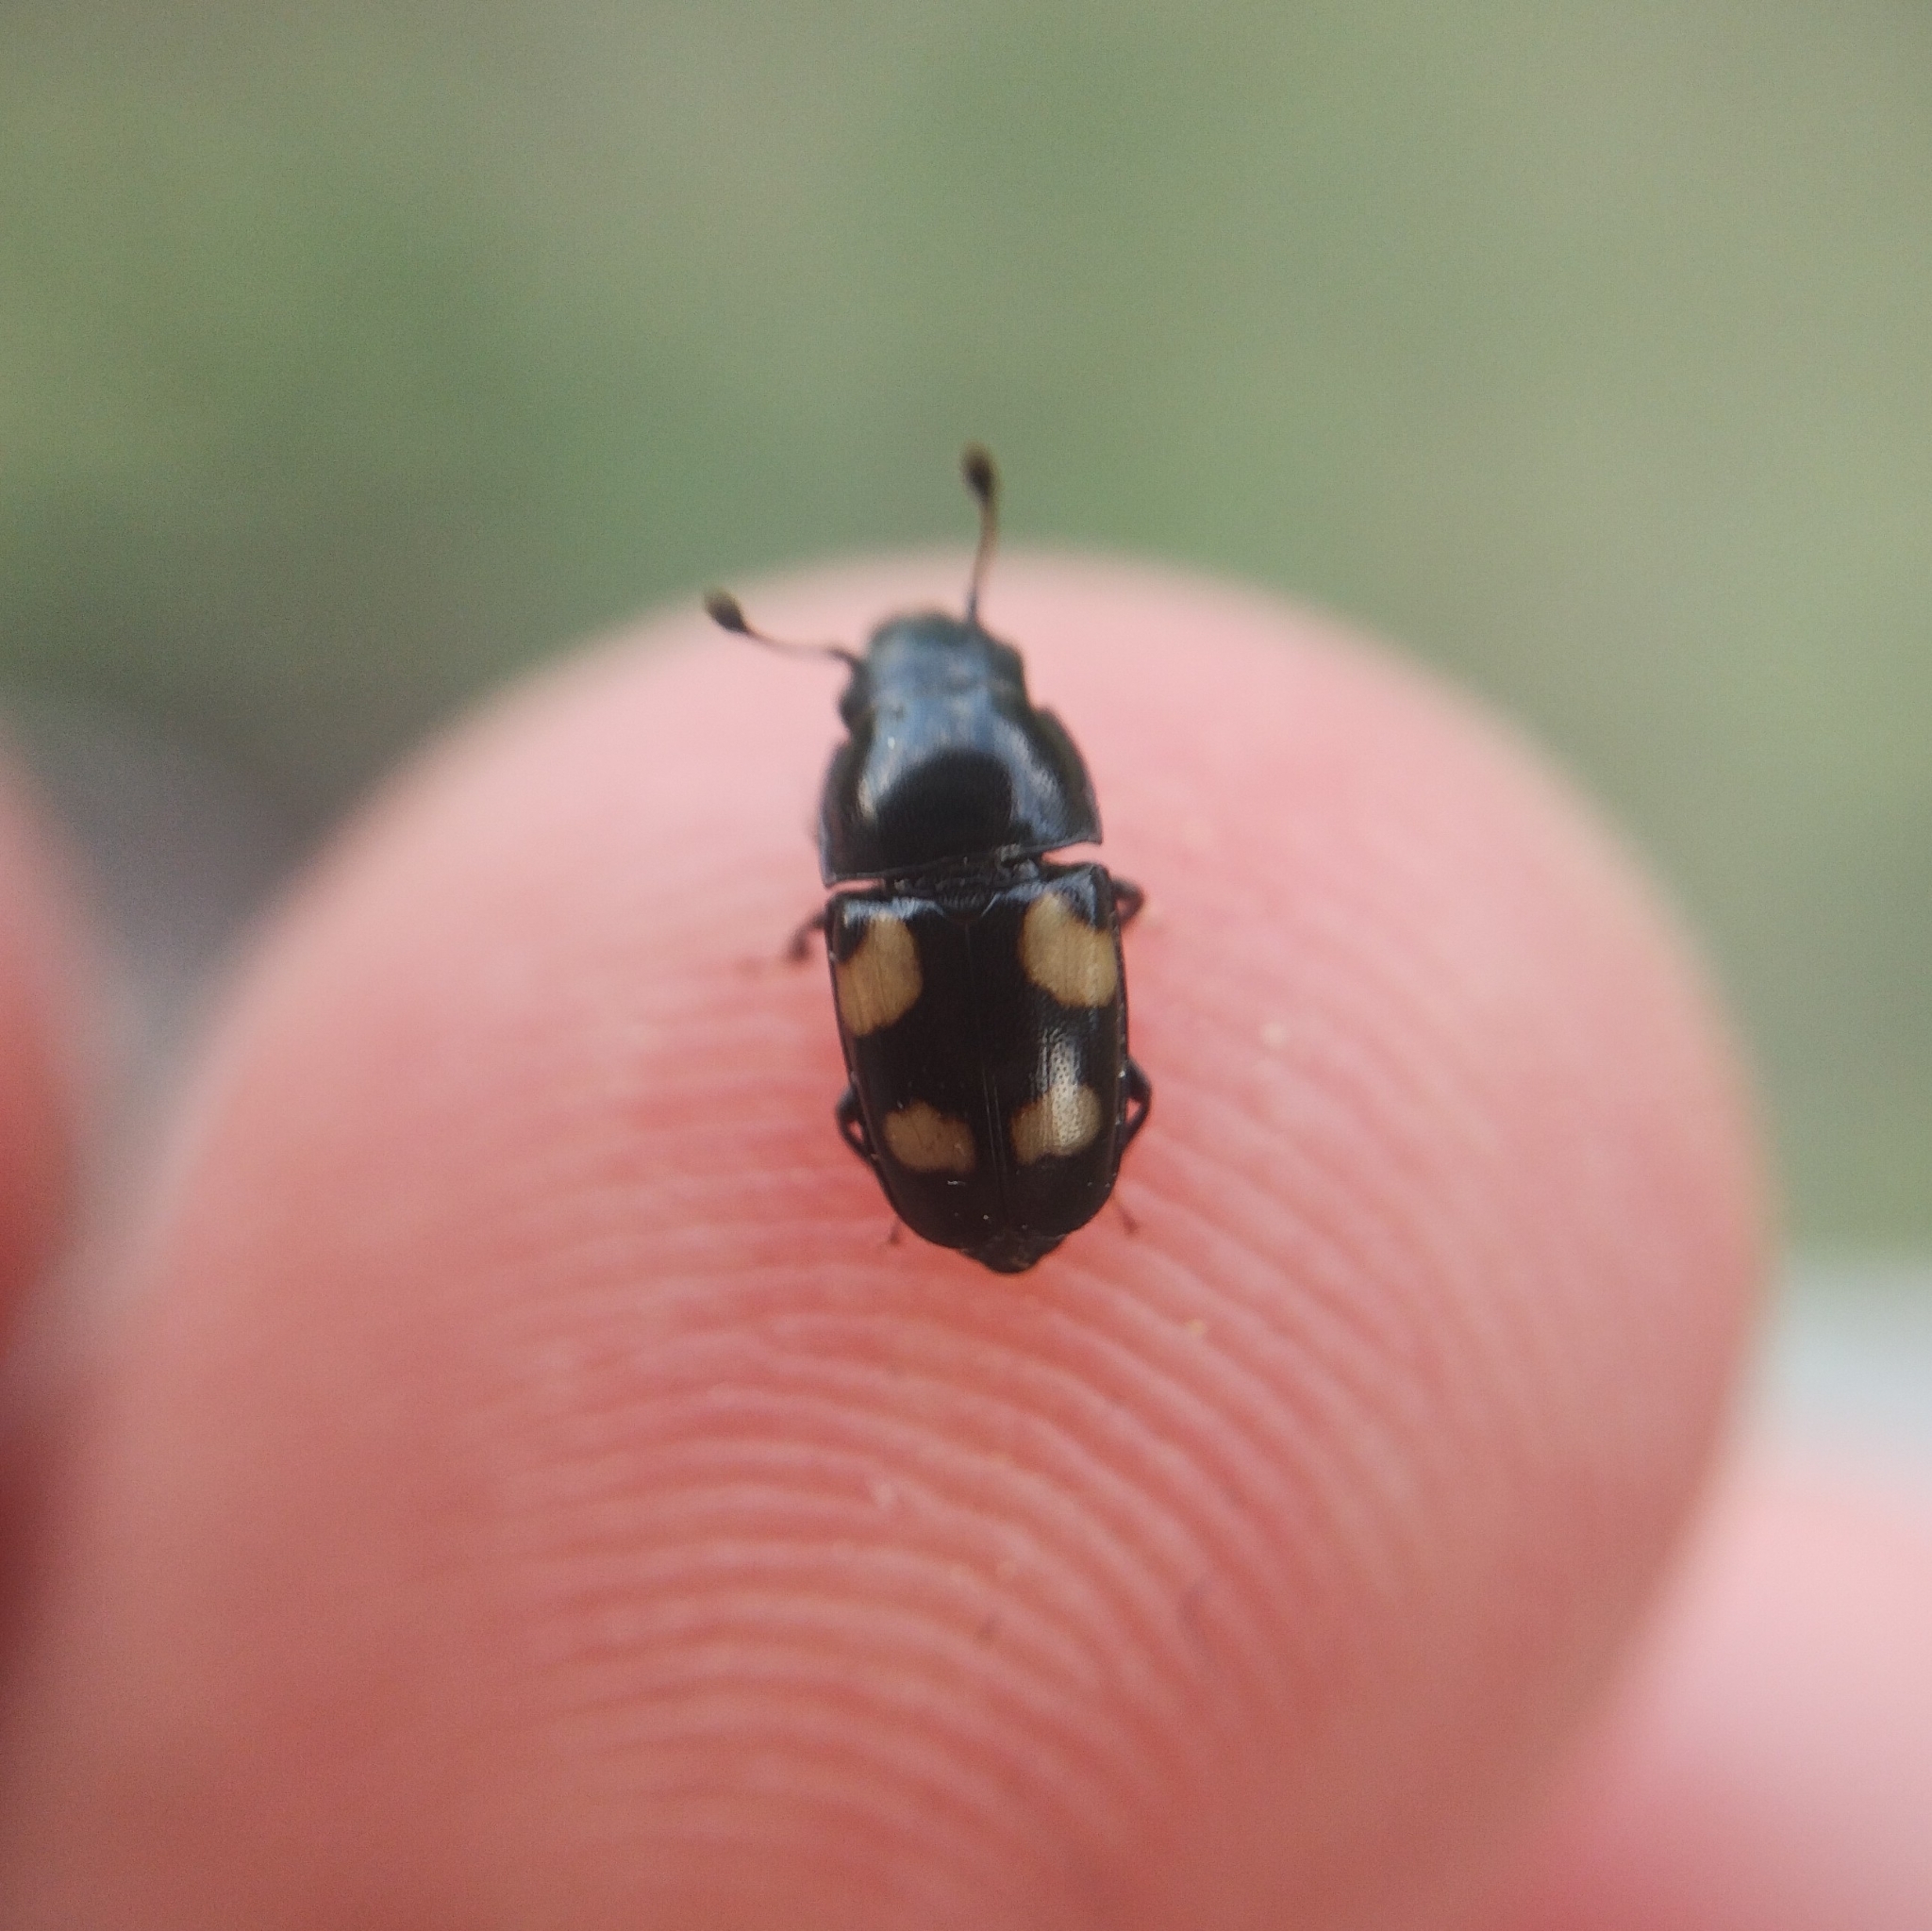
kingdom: Animalia
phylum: Arthropoda
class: Insecta
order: Coleoptera
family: Nitidulidae
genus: Glischrochilus
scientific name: Glischrochilus quadrisignatus
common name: Picnic beetle
